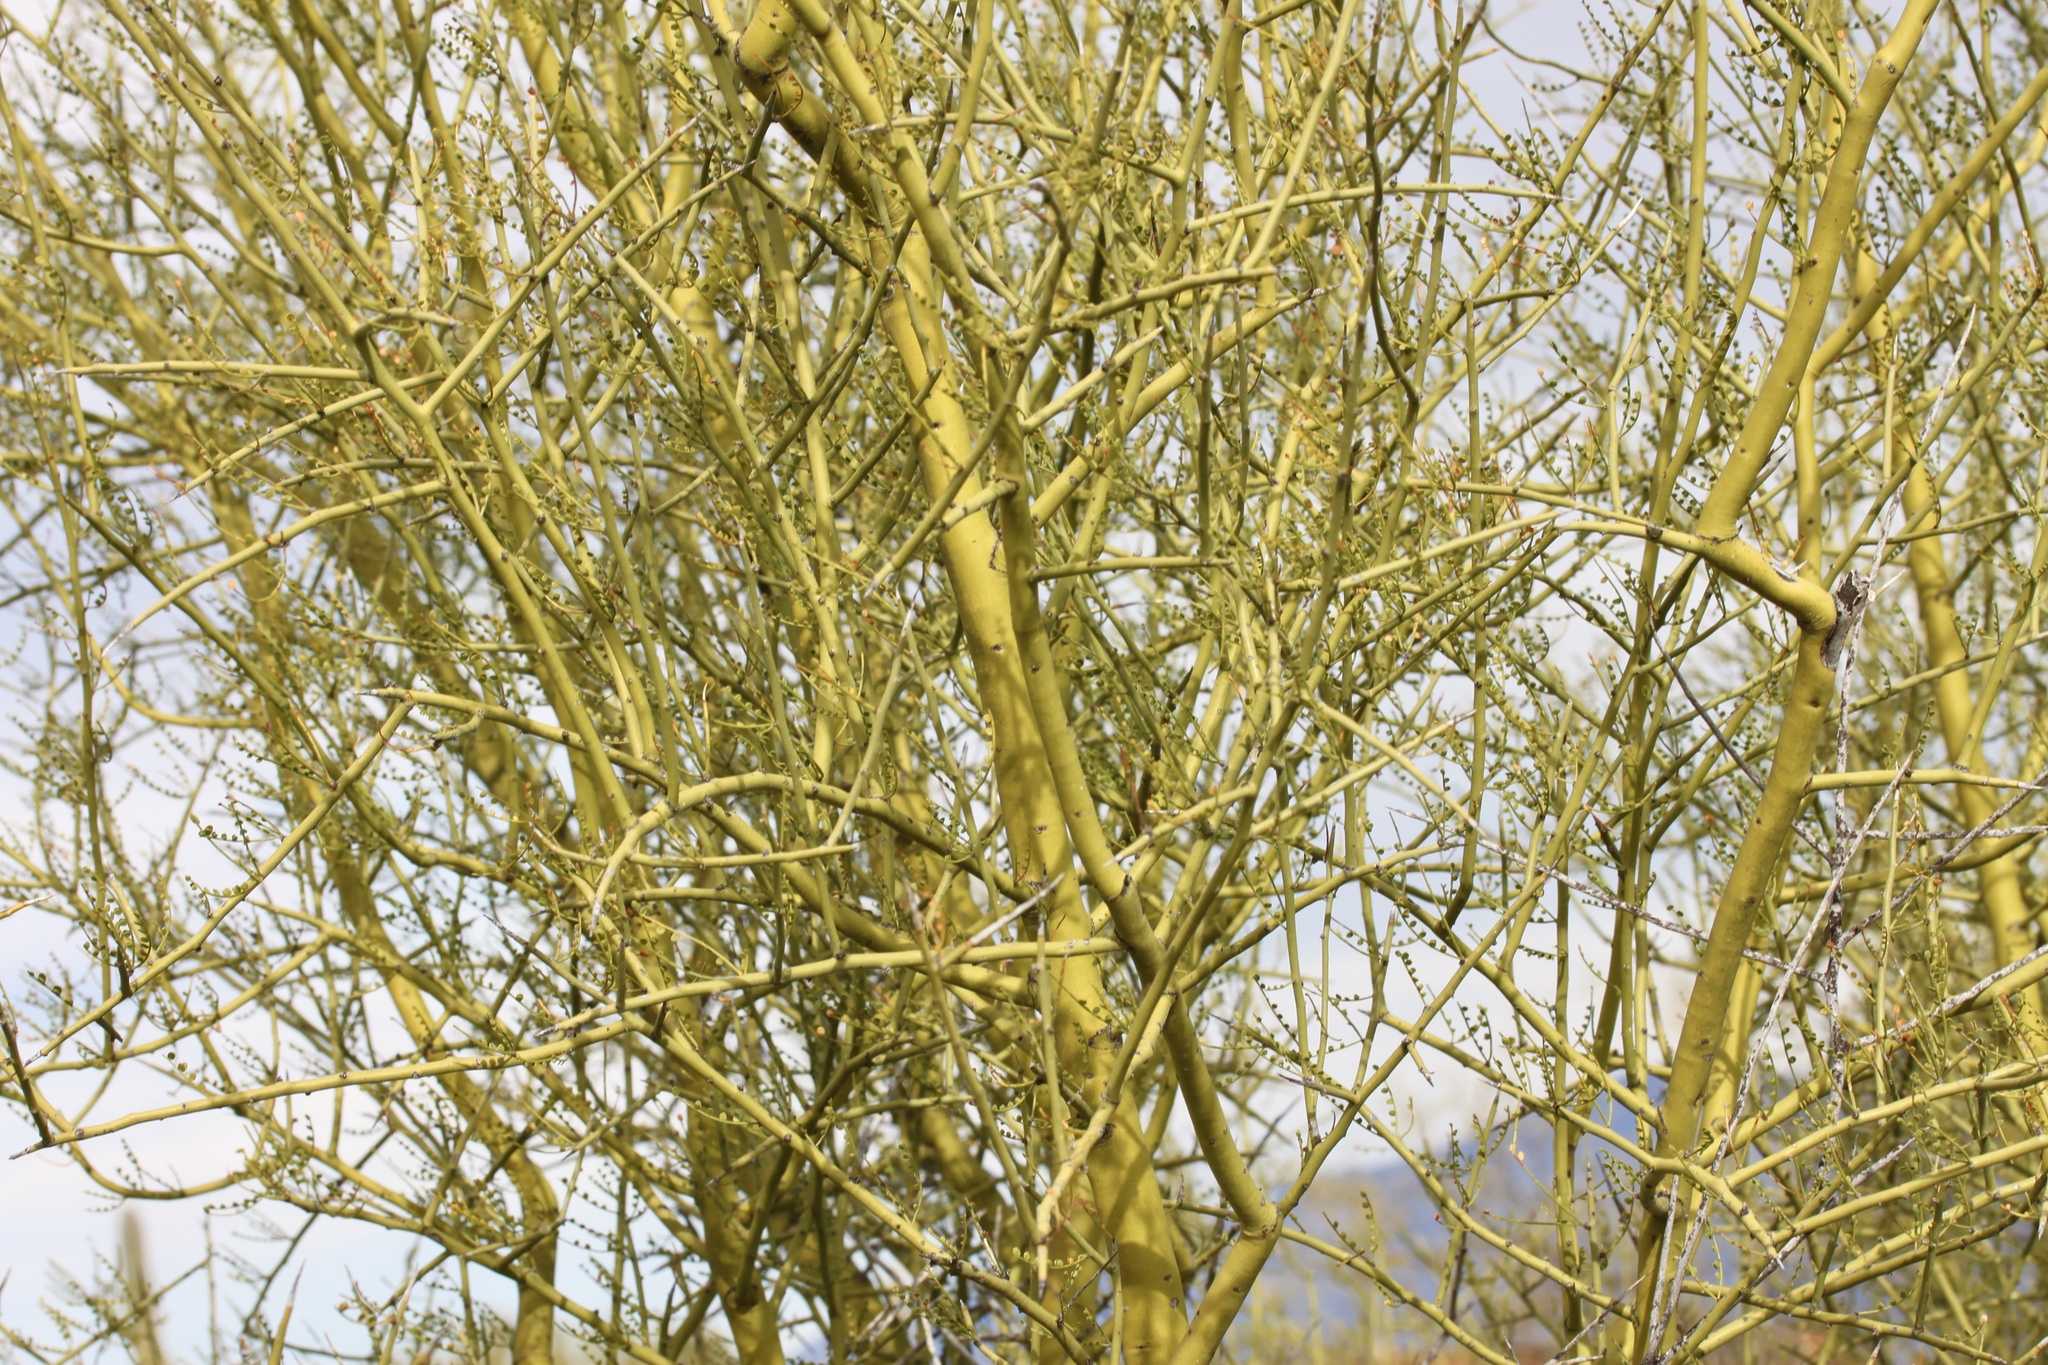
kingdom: Plantae
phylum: Tracheophyta
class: Magnoliopsida
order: Fabales
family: Fabaceae
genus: Parkinsonia
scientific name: Parkinsonia microphylla
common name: Yellow paloverde
